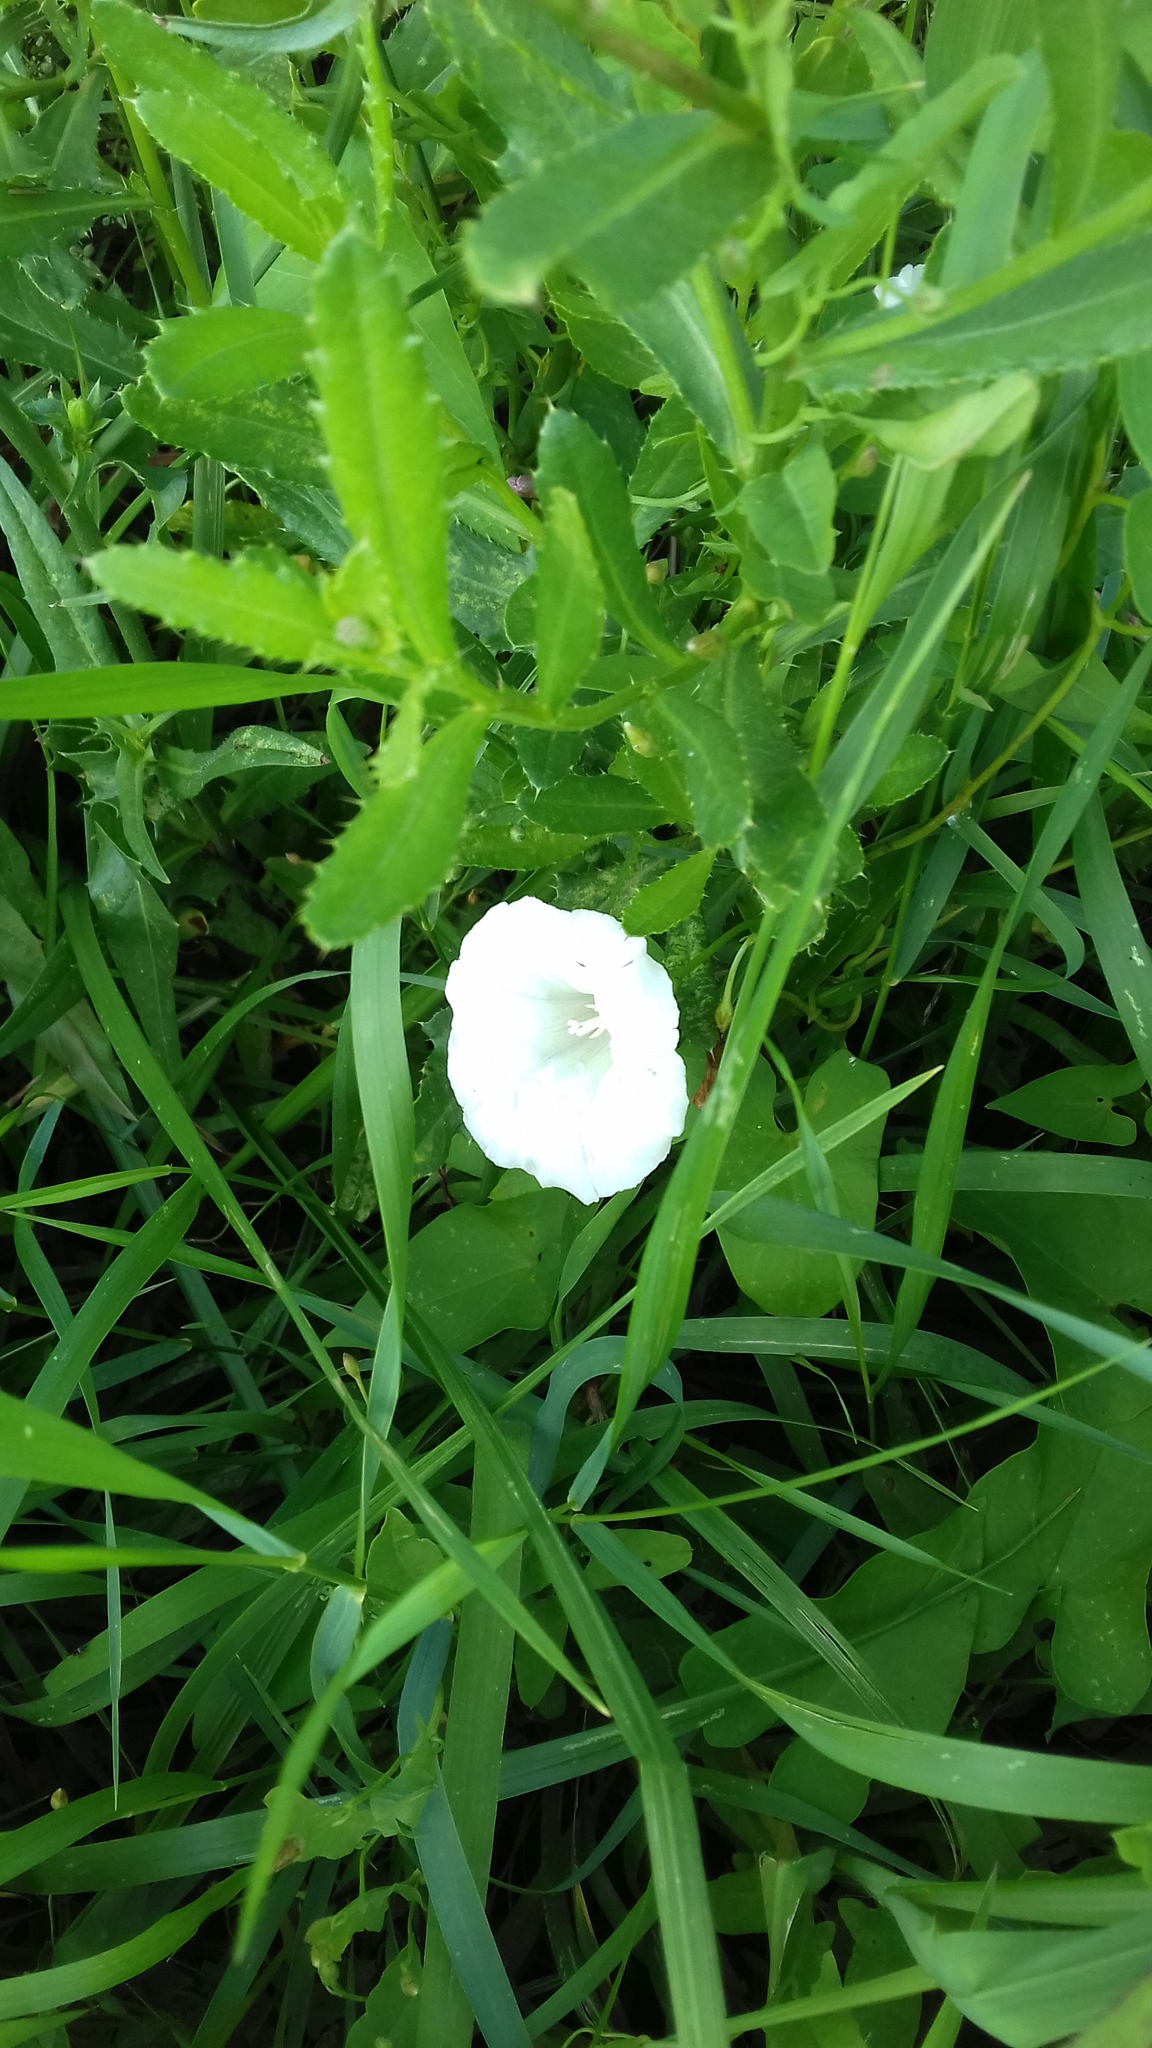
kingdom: Plantae
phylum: Tracheophyta
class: Magnoliopsida
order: Solanales
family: Convolvulaceae
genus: Calystegia
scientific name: Calystegia sepium
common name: Hedge bindweed
